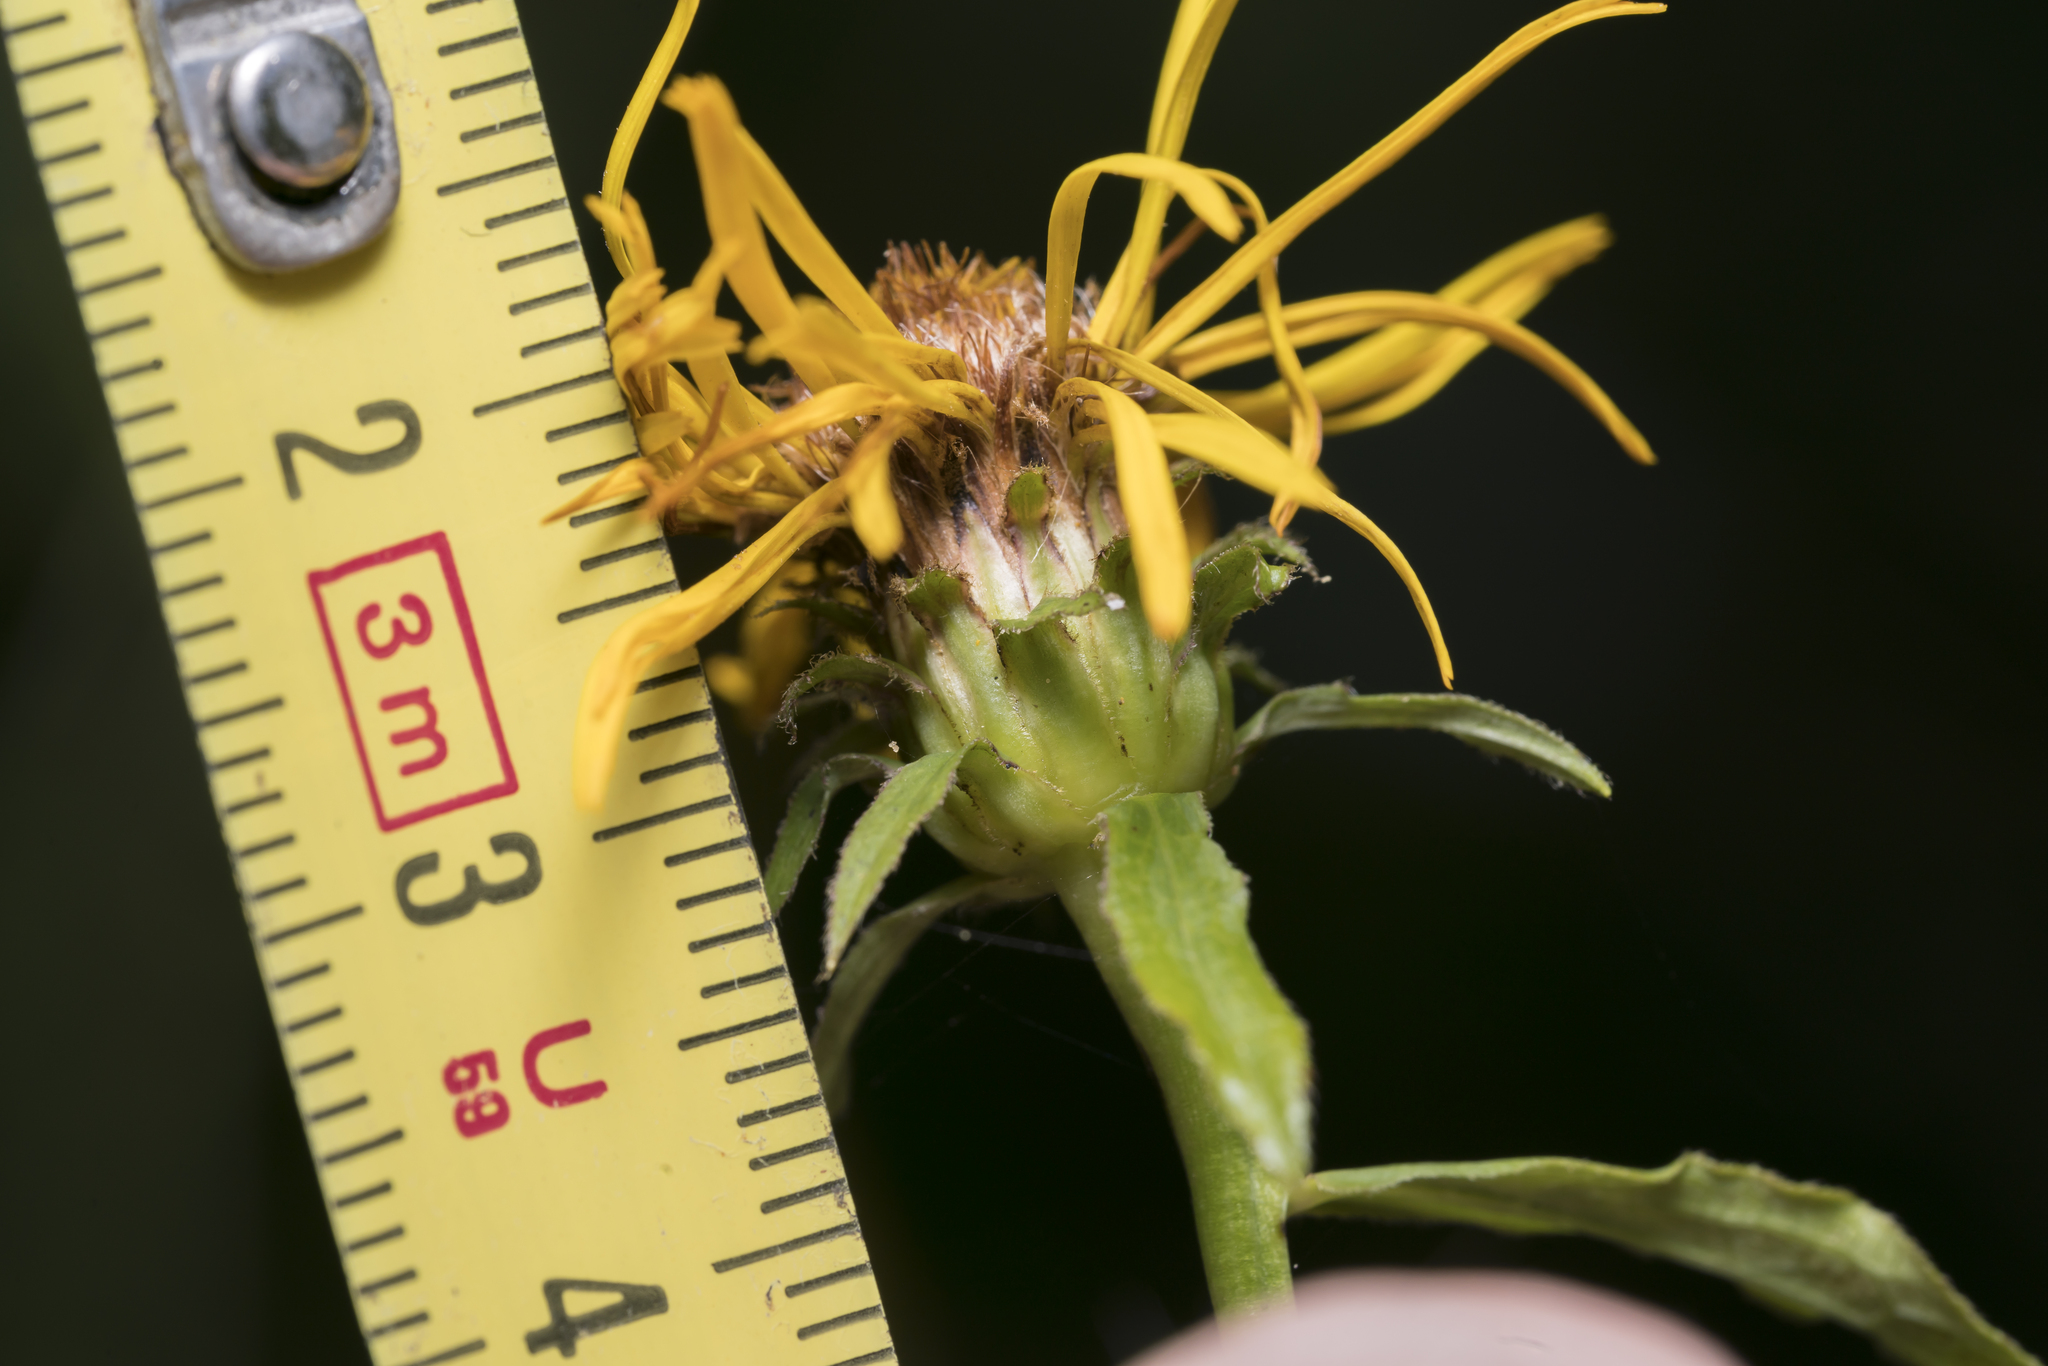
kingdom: Plantae
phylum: Tracheophyta
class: Magnoliopsida
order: Asterales
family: Asteraceae
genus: Pentanema
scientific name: Pentanema salicinum
